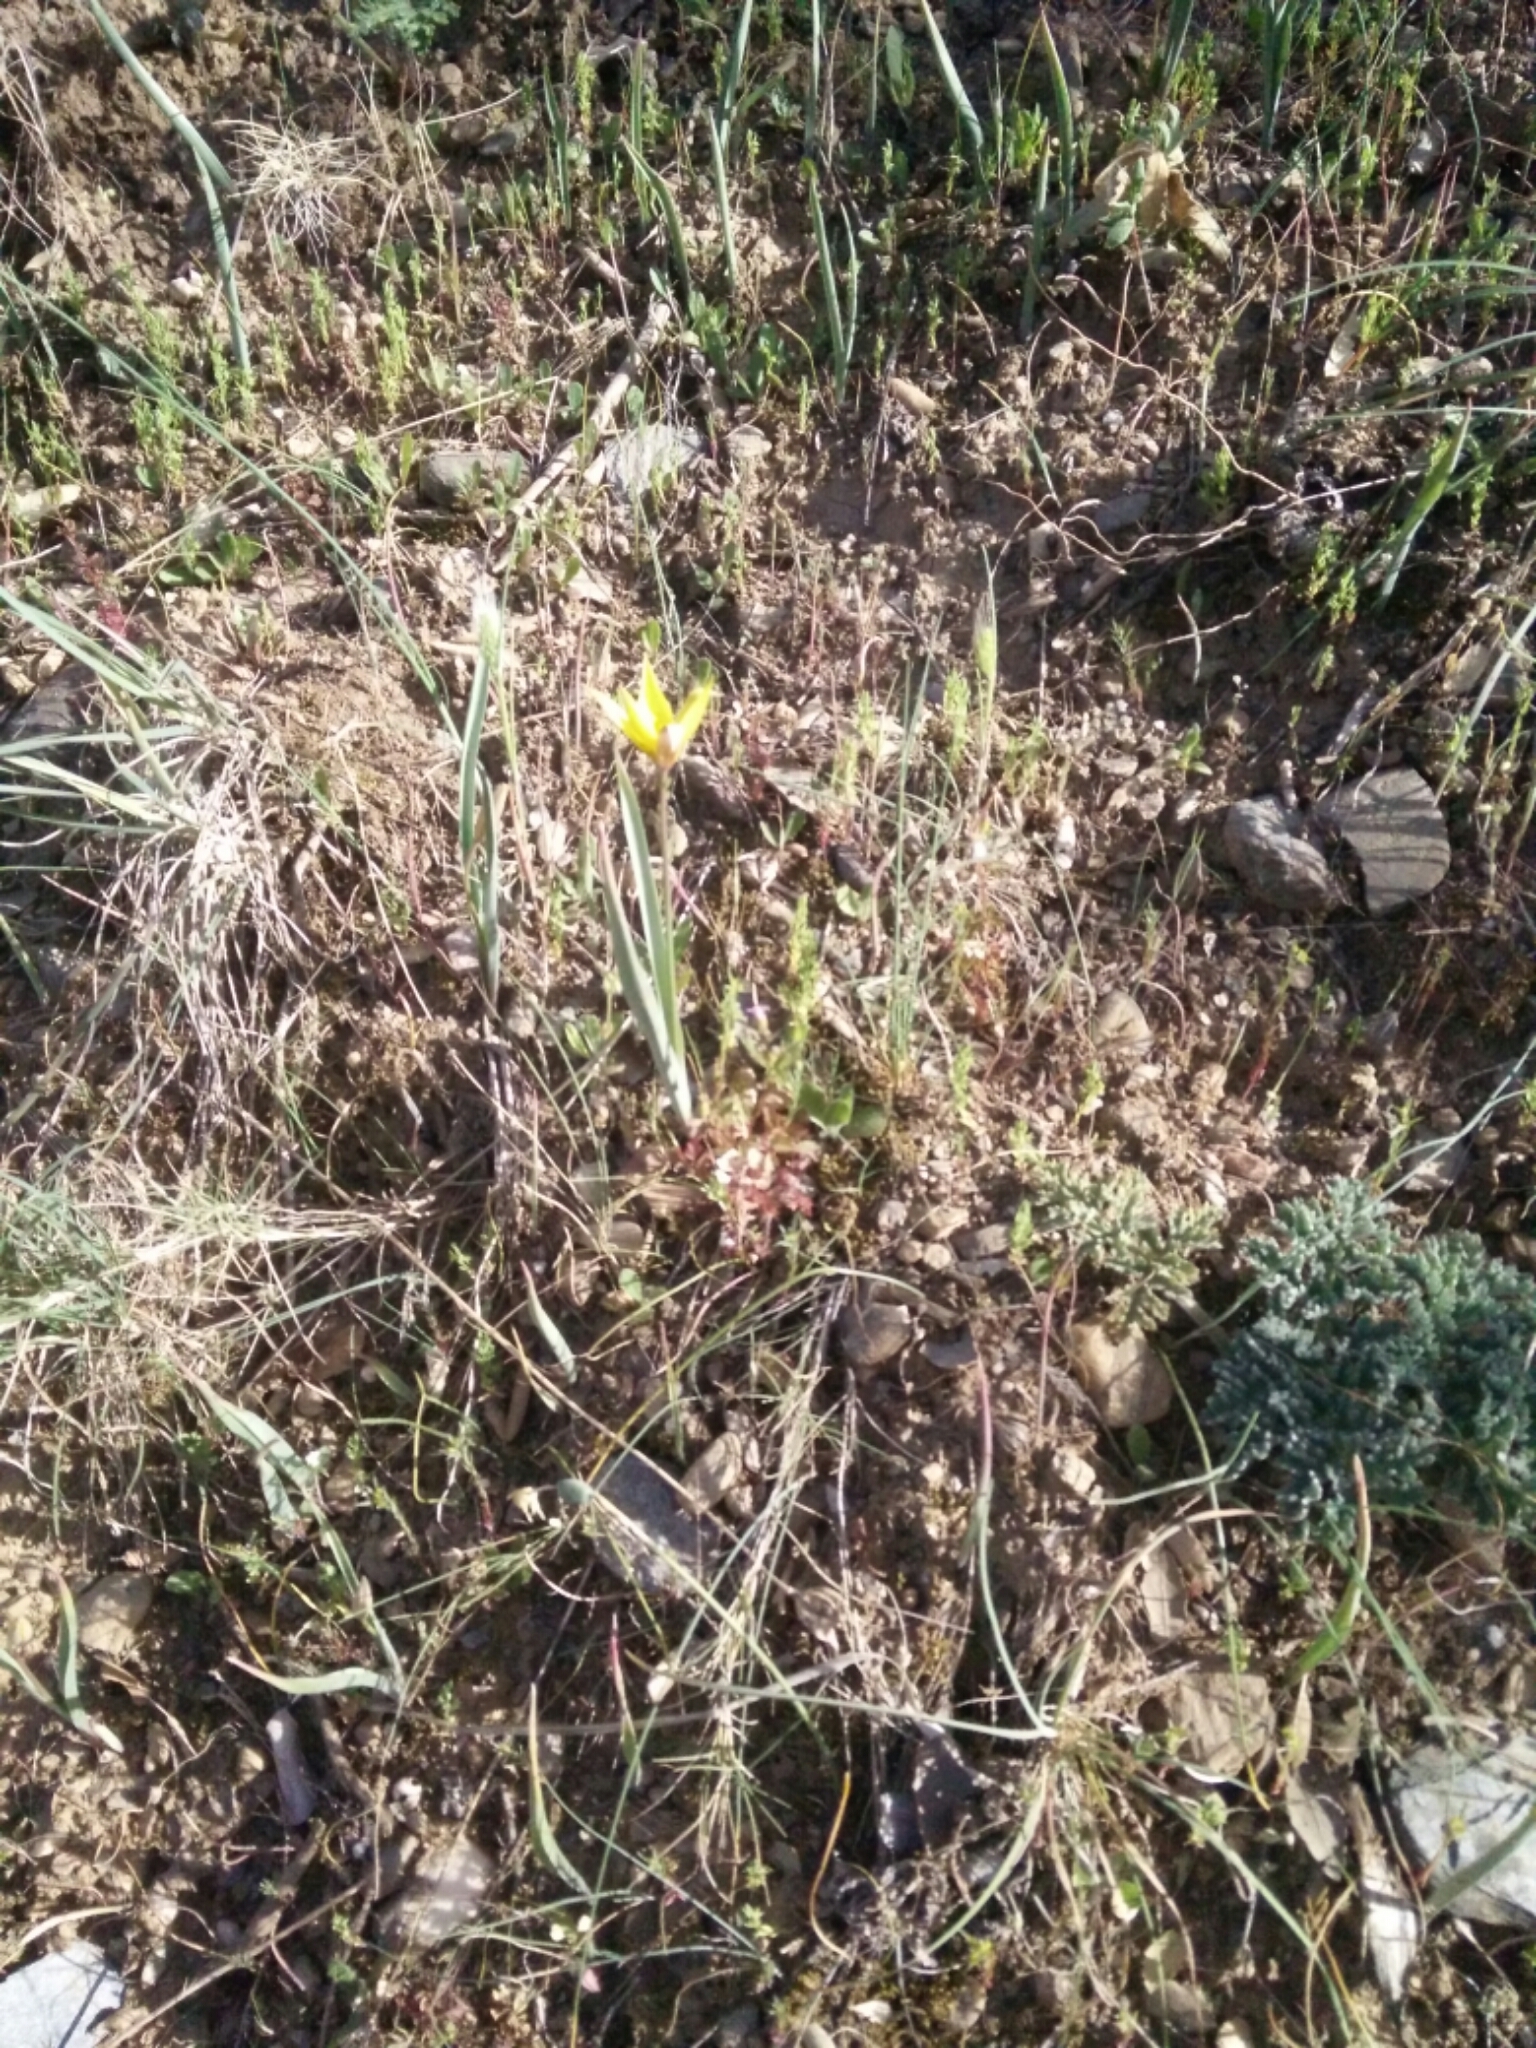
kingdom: Plantae
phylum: Tracheophyta
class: Liliopsida
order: Liliales
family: Liliaceae
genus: Tulipa
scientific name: Tulipa sylvestris
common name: Wild tulip
